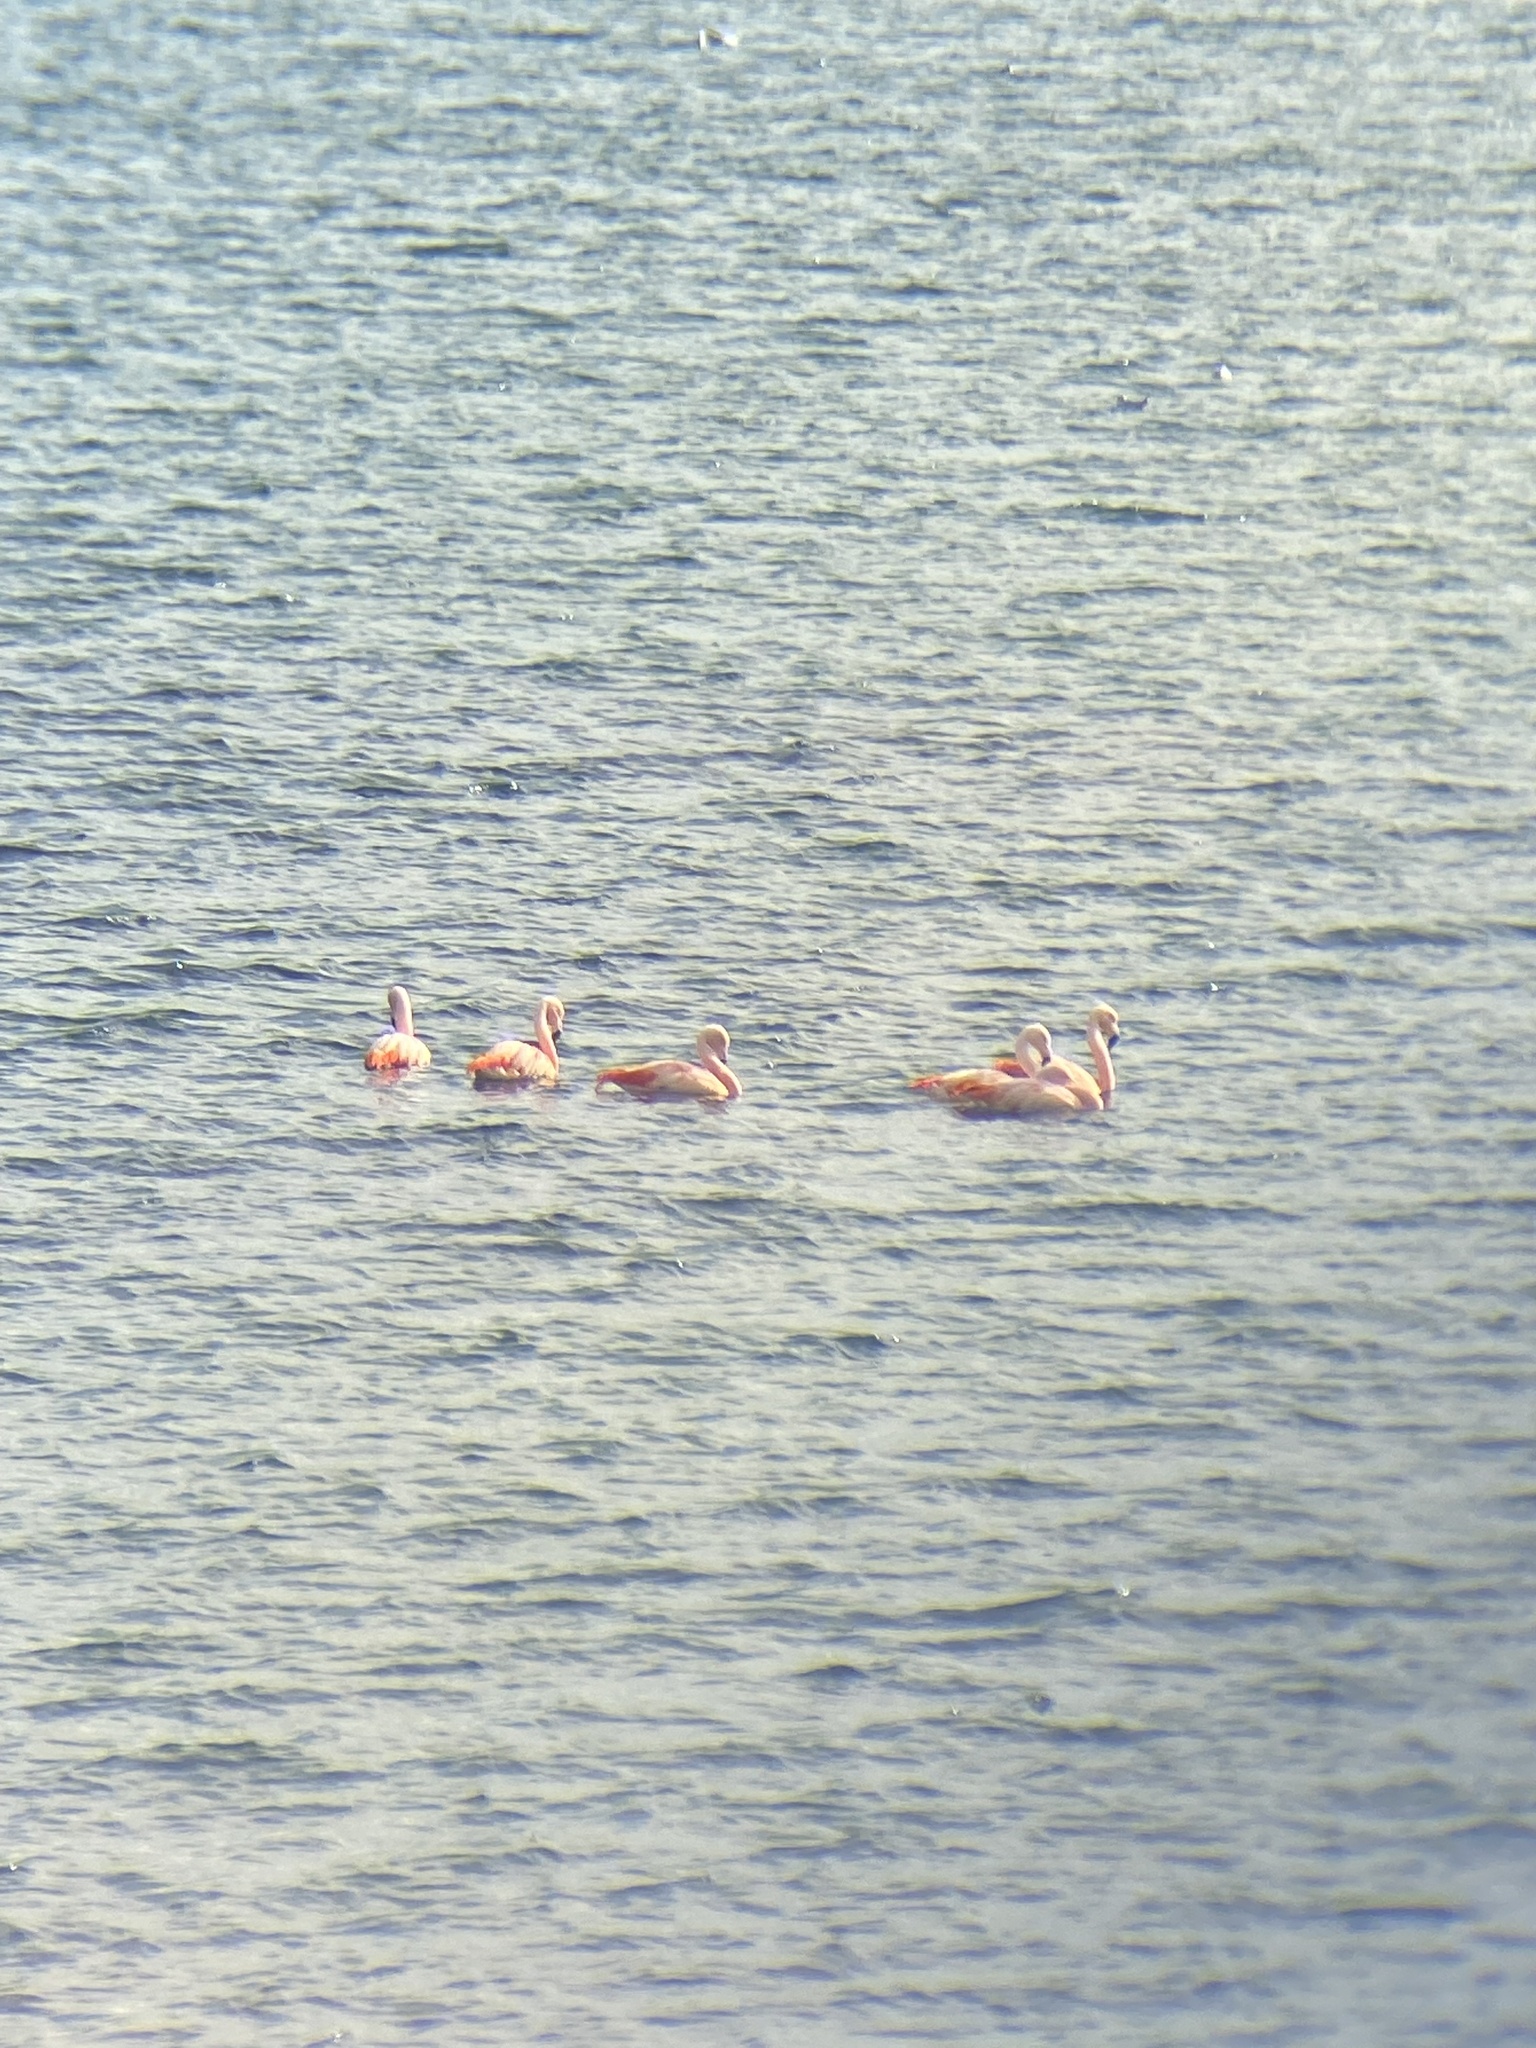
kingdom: Animalia
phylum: Chordata
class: Aves
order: Phoenicopteriformes
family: Phoenicopteridae
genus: Phoenicopterus
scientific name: Phoenicopterus chilensis
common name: Chilean flamingo
